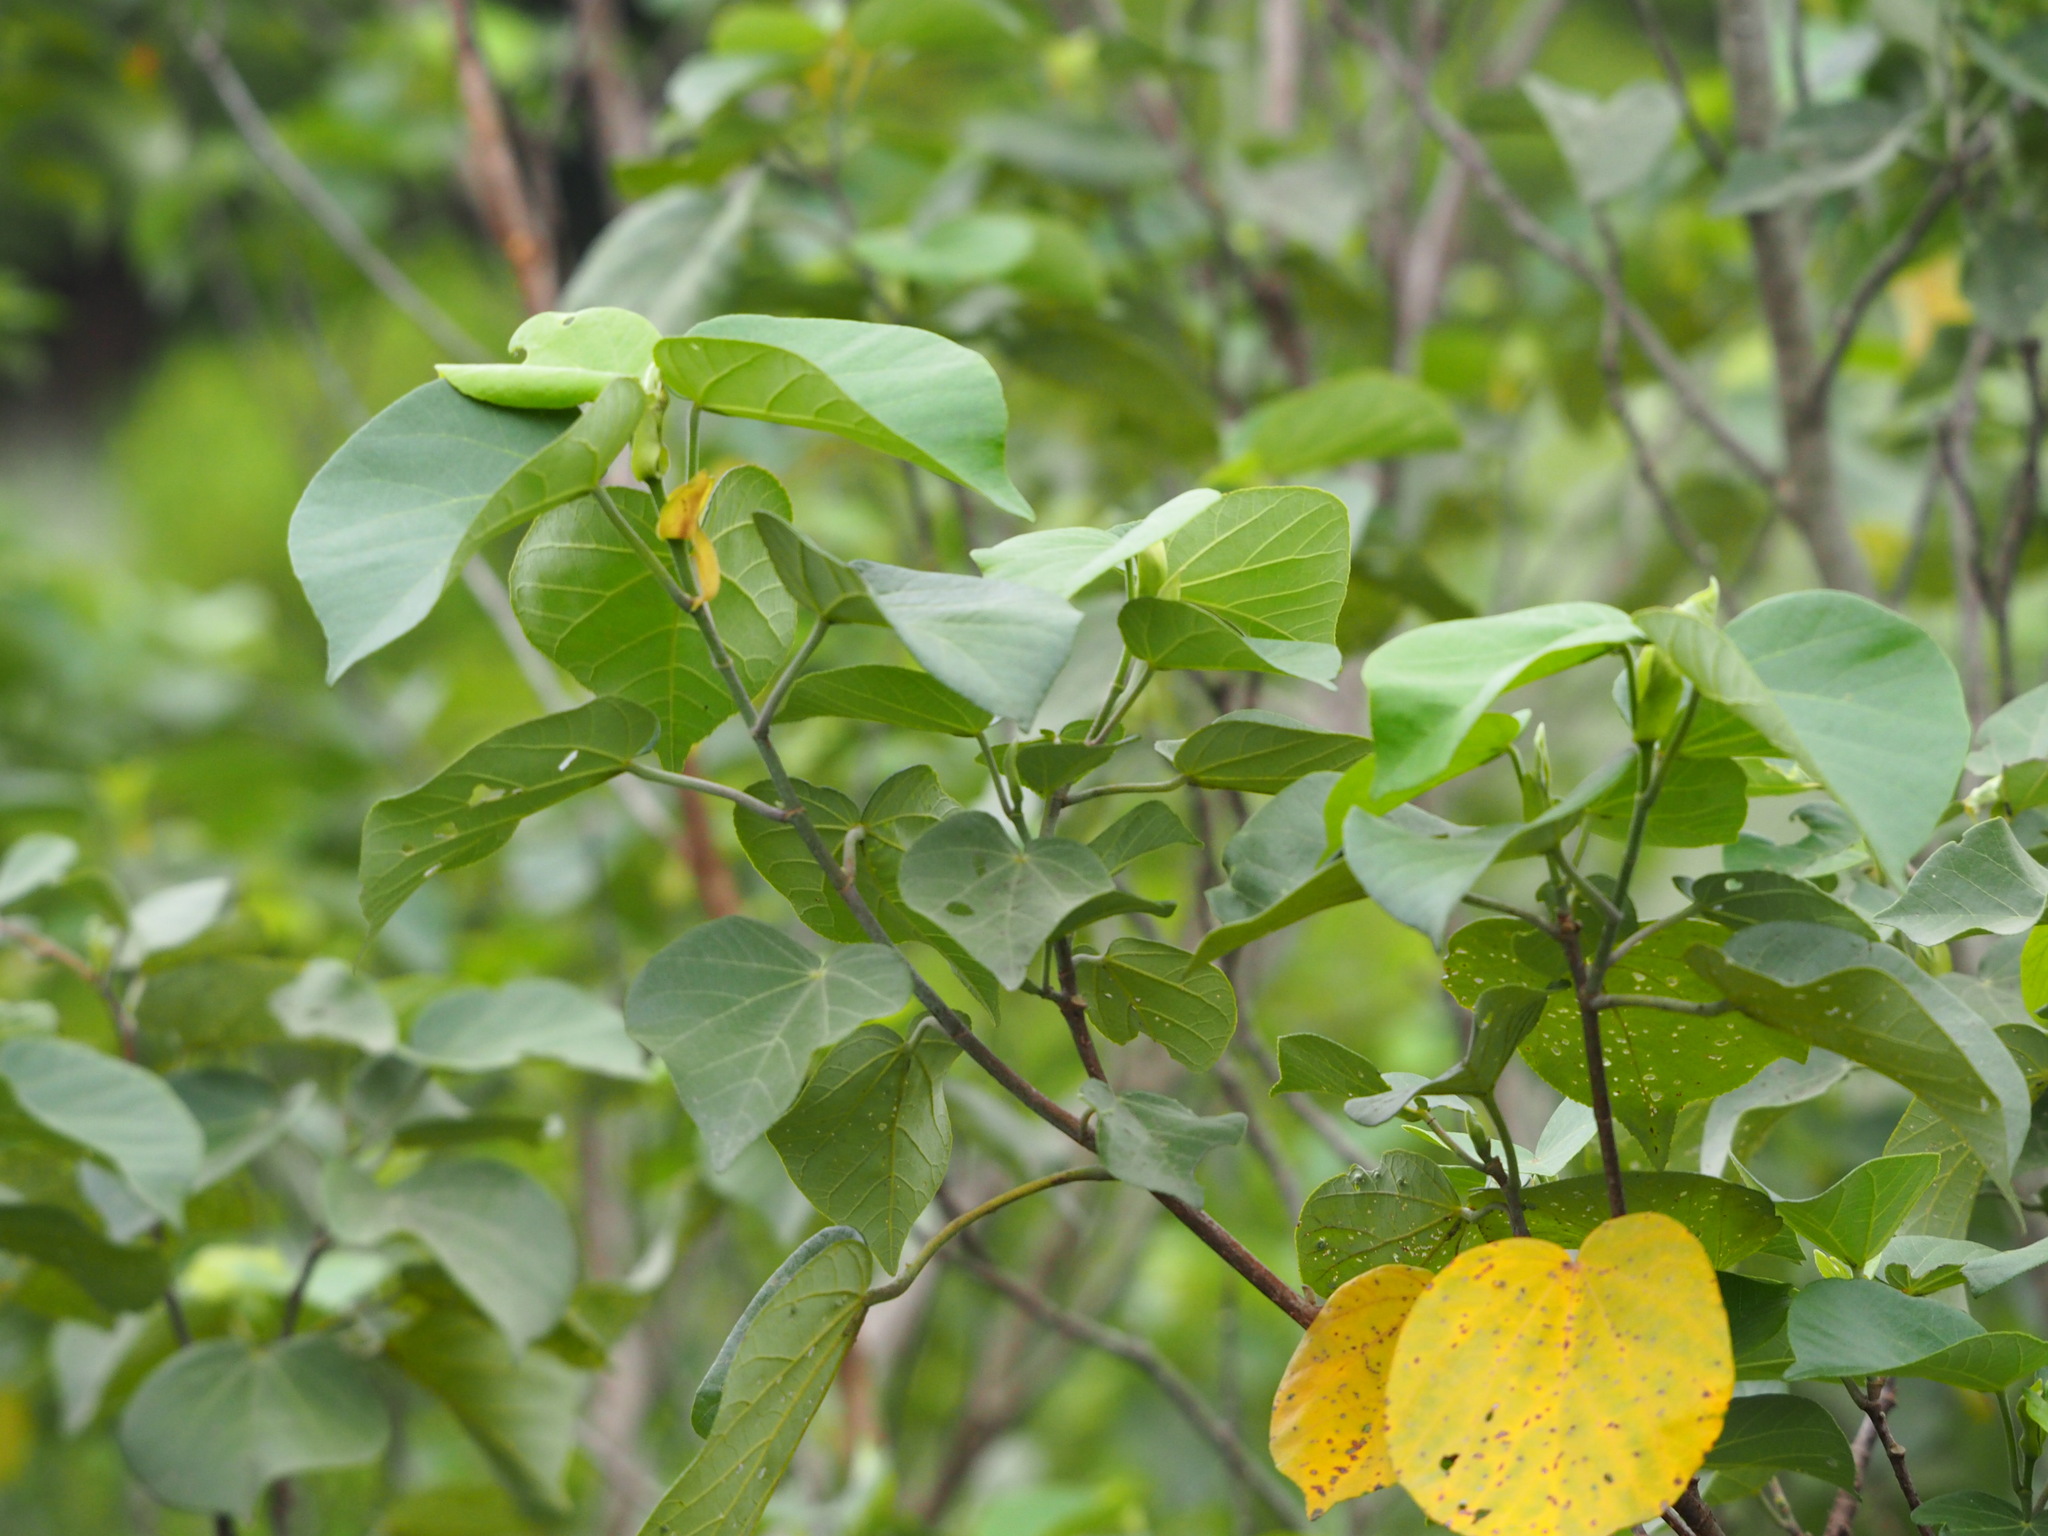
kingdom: Plantae
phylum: Tracheophyta
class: Magnoliopsida
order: Malvales
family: Malvaceae
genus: Talipariti
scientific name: Talipariti tiliaceum
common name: Sea hibiscus
